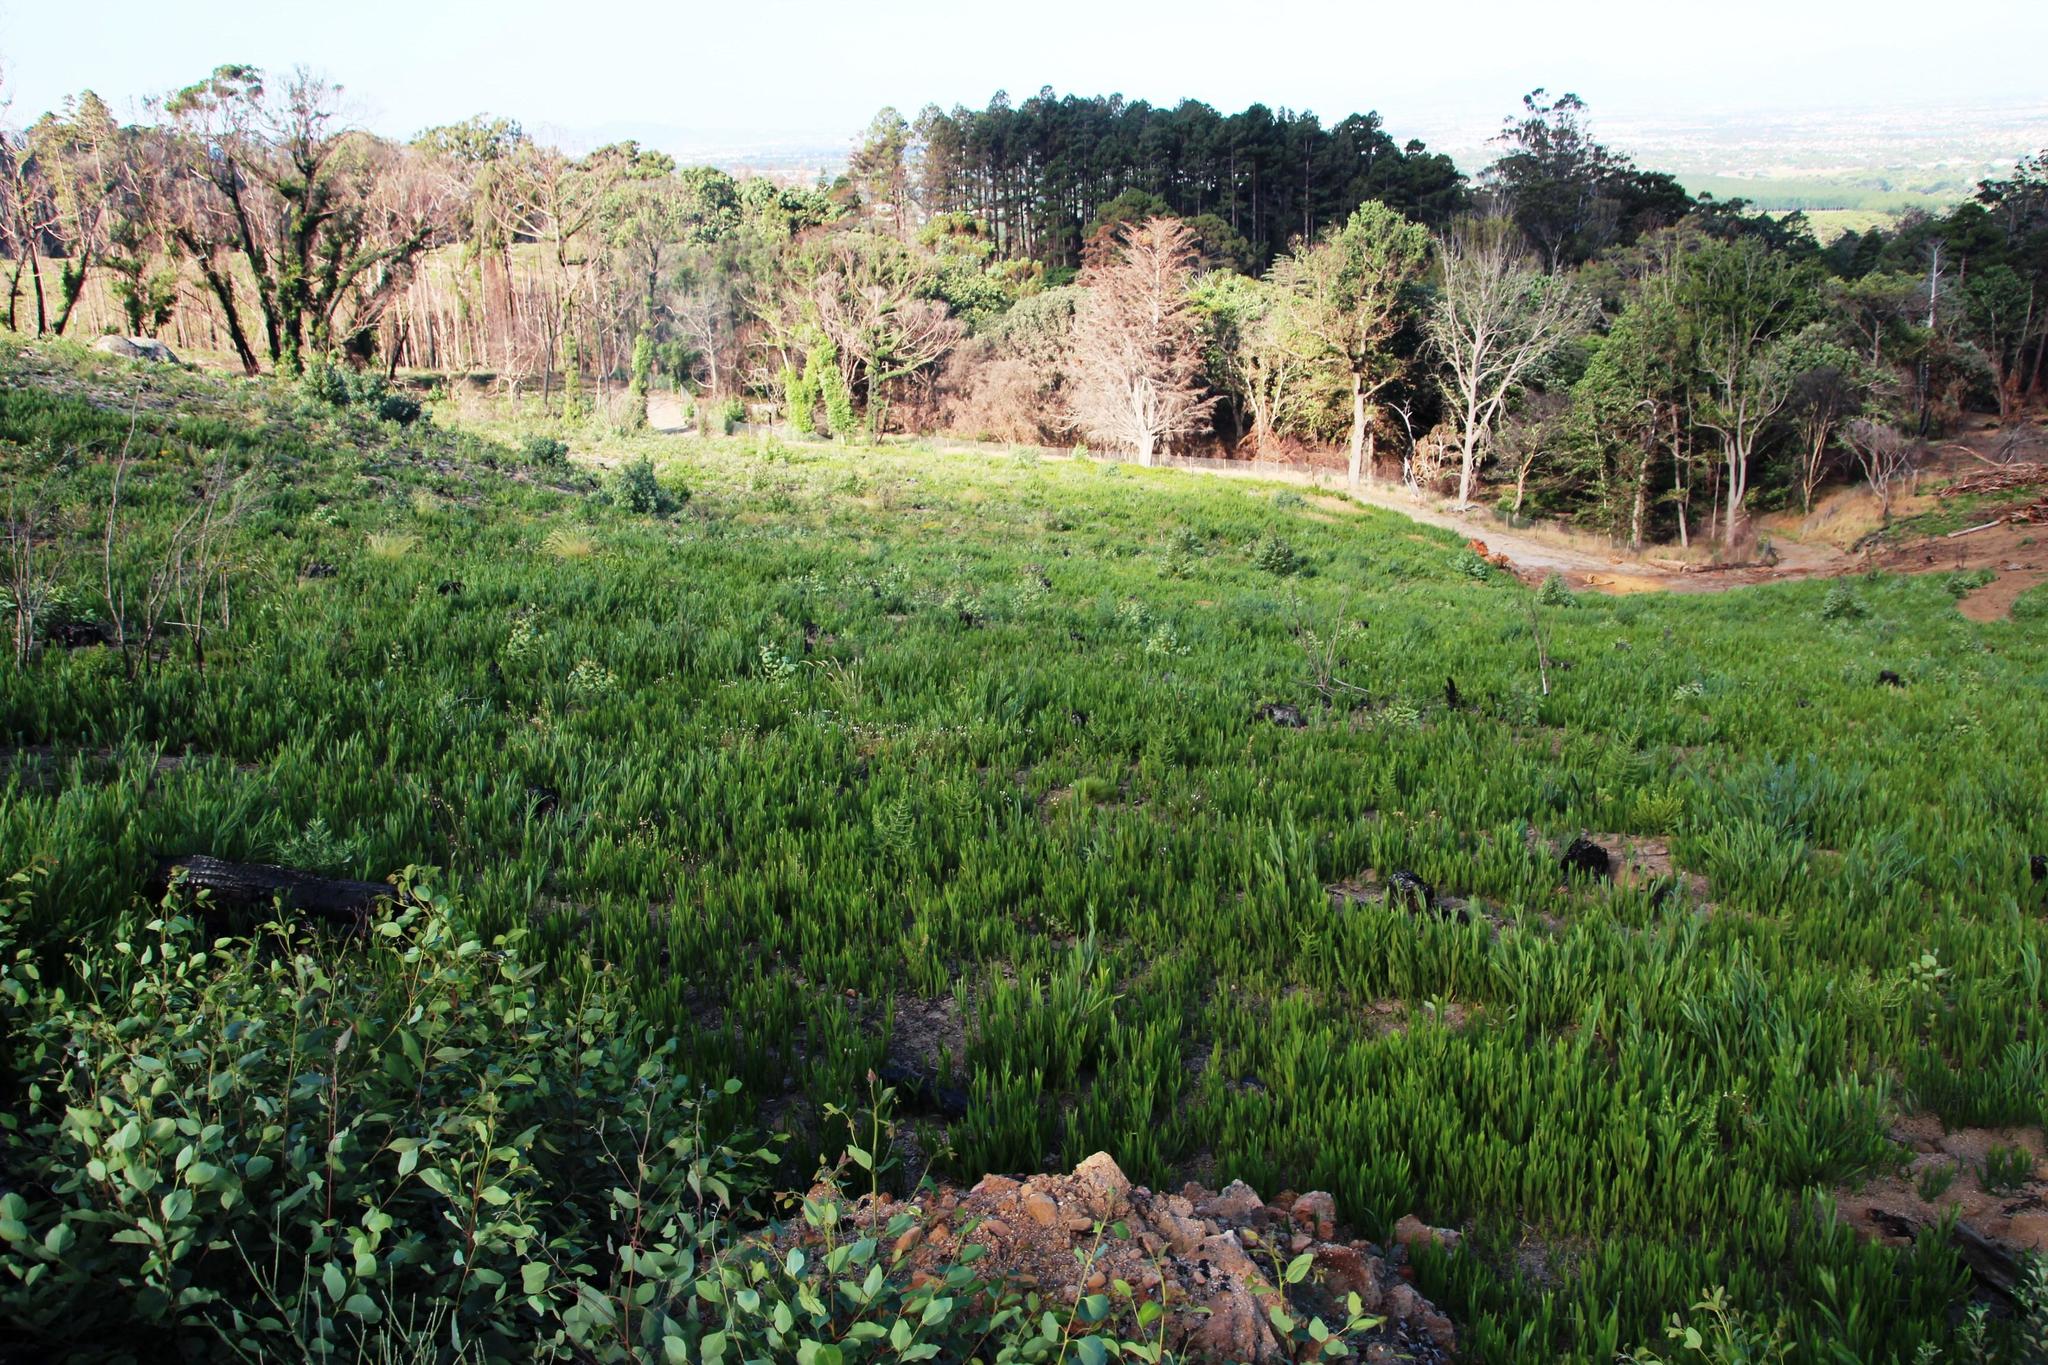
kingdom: Plantae
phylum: Tracheophyta
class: Magnoliopsida
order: Fabales
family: Fabaceae
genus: Acacia
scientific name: Acacia longifolia
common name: Sydney golden wattle
